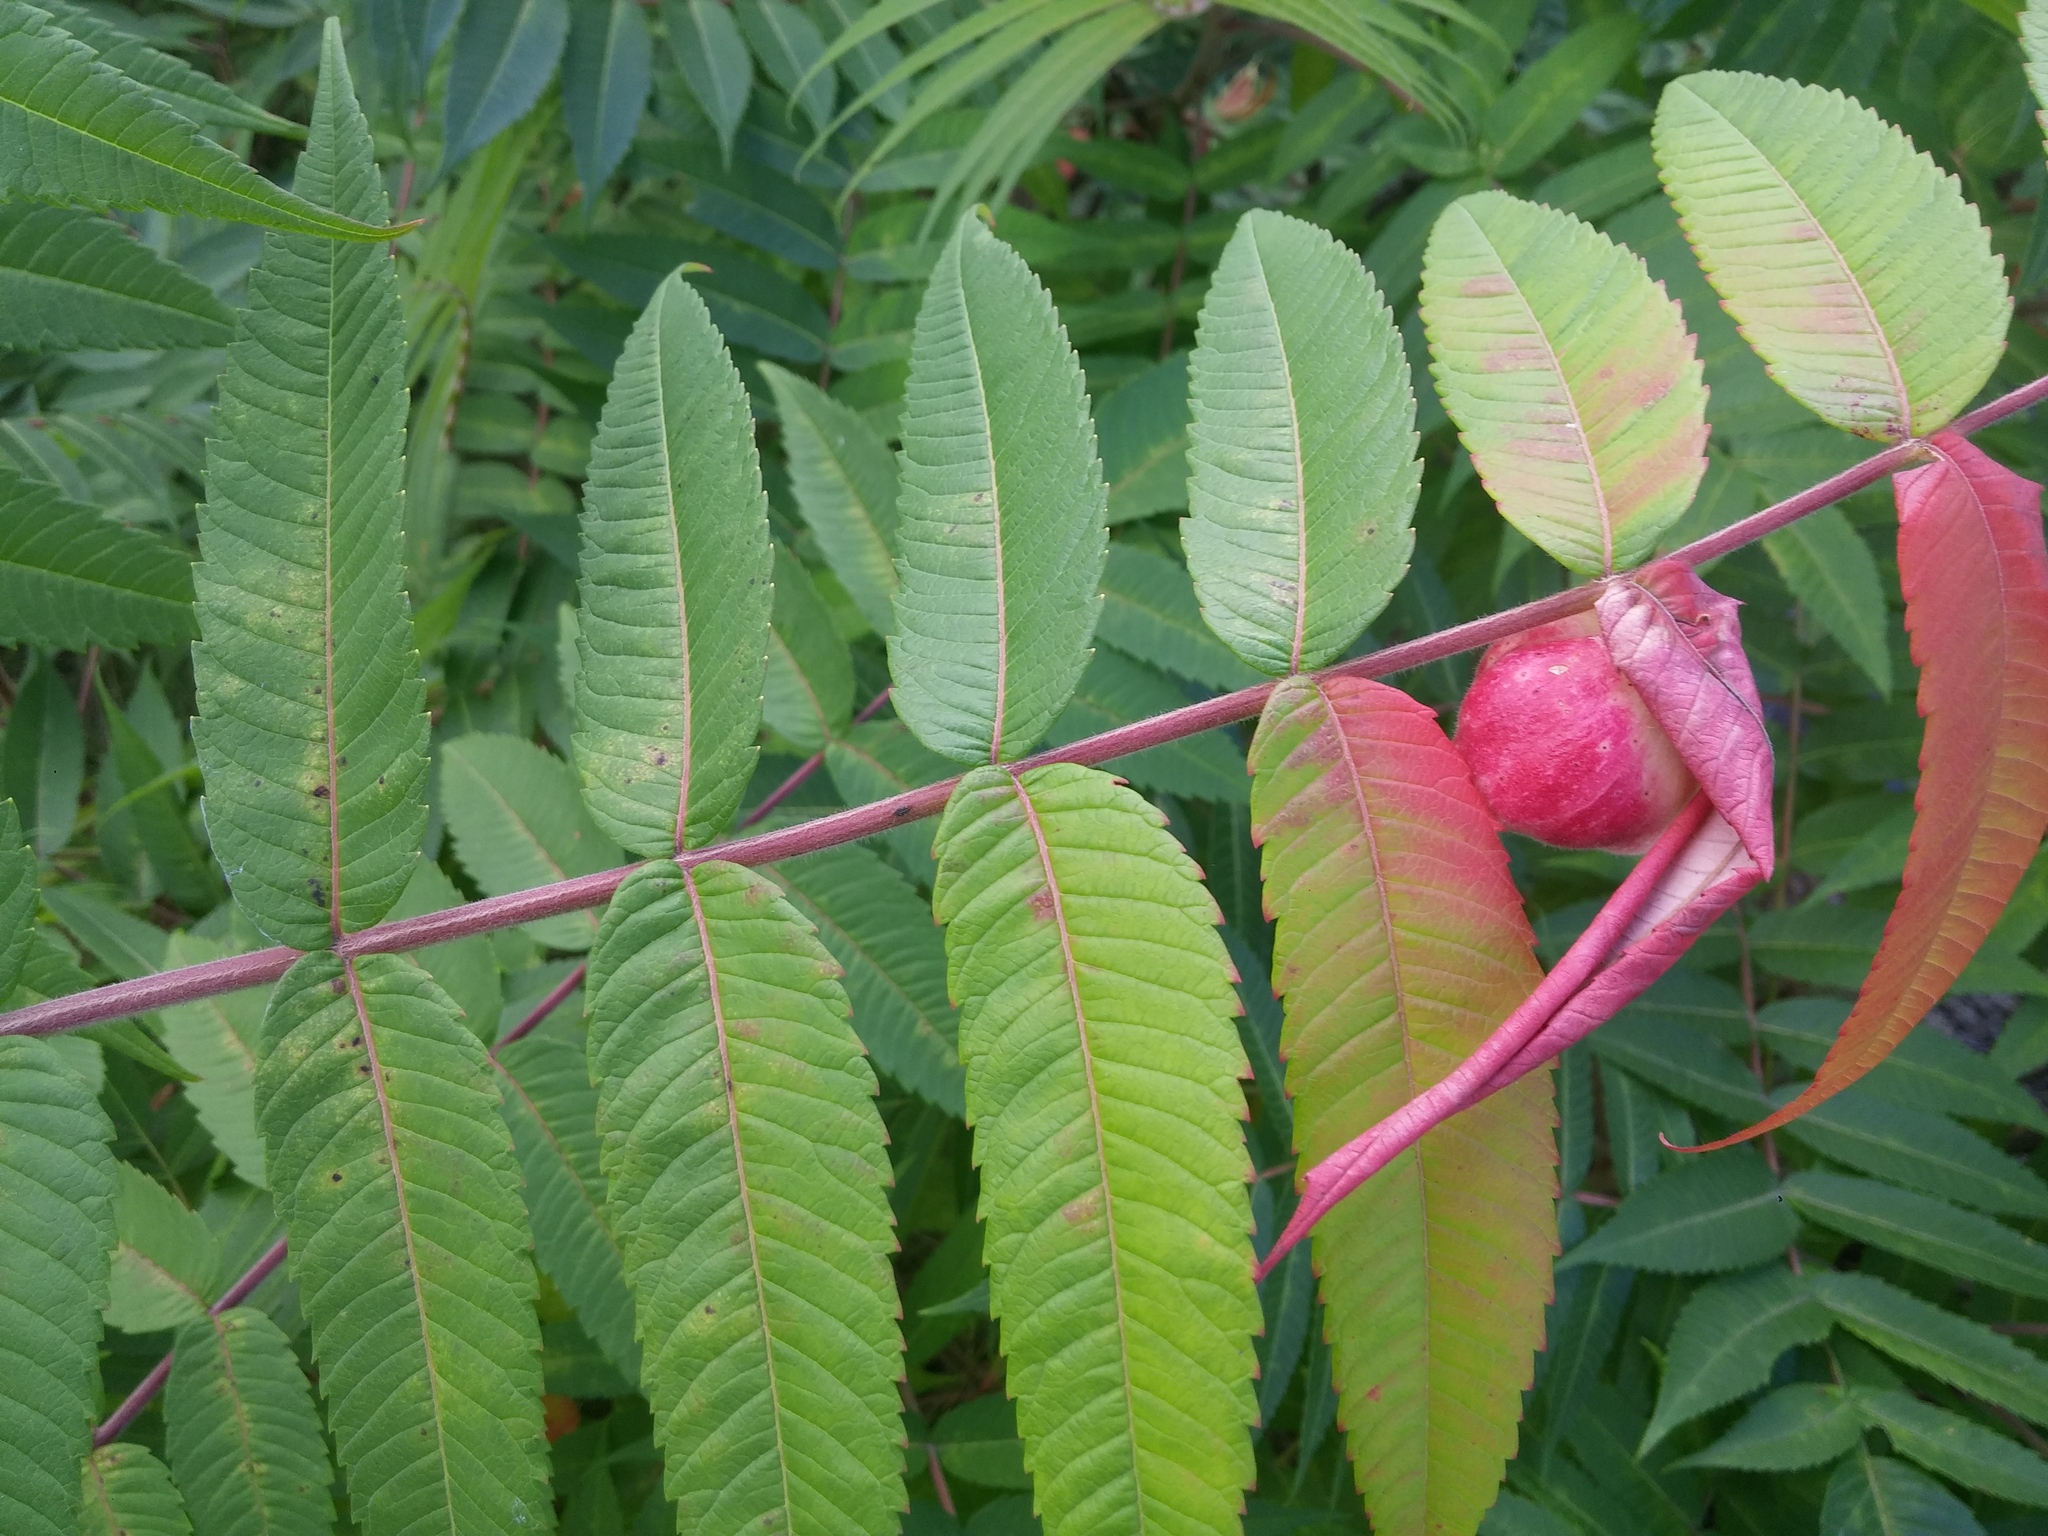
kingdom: Animalia
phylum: Arthropoda
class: Insecta
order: Hemiptera
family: Aphididae
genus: Melaphis
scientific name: Melaphis rhois
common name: Sumac gall aphid
